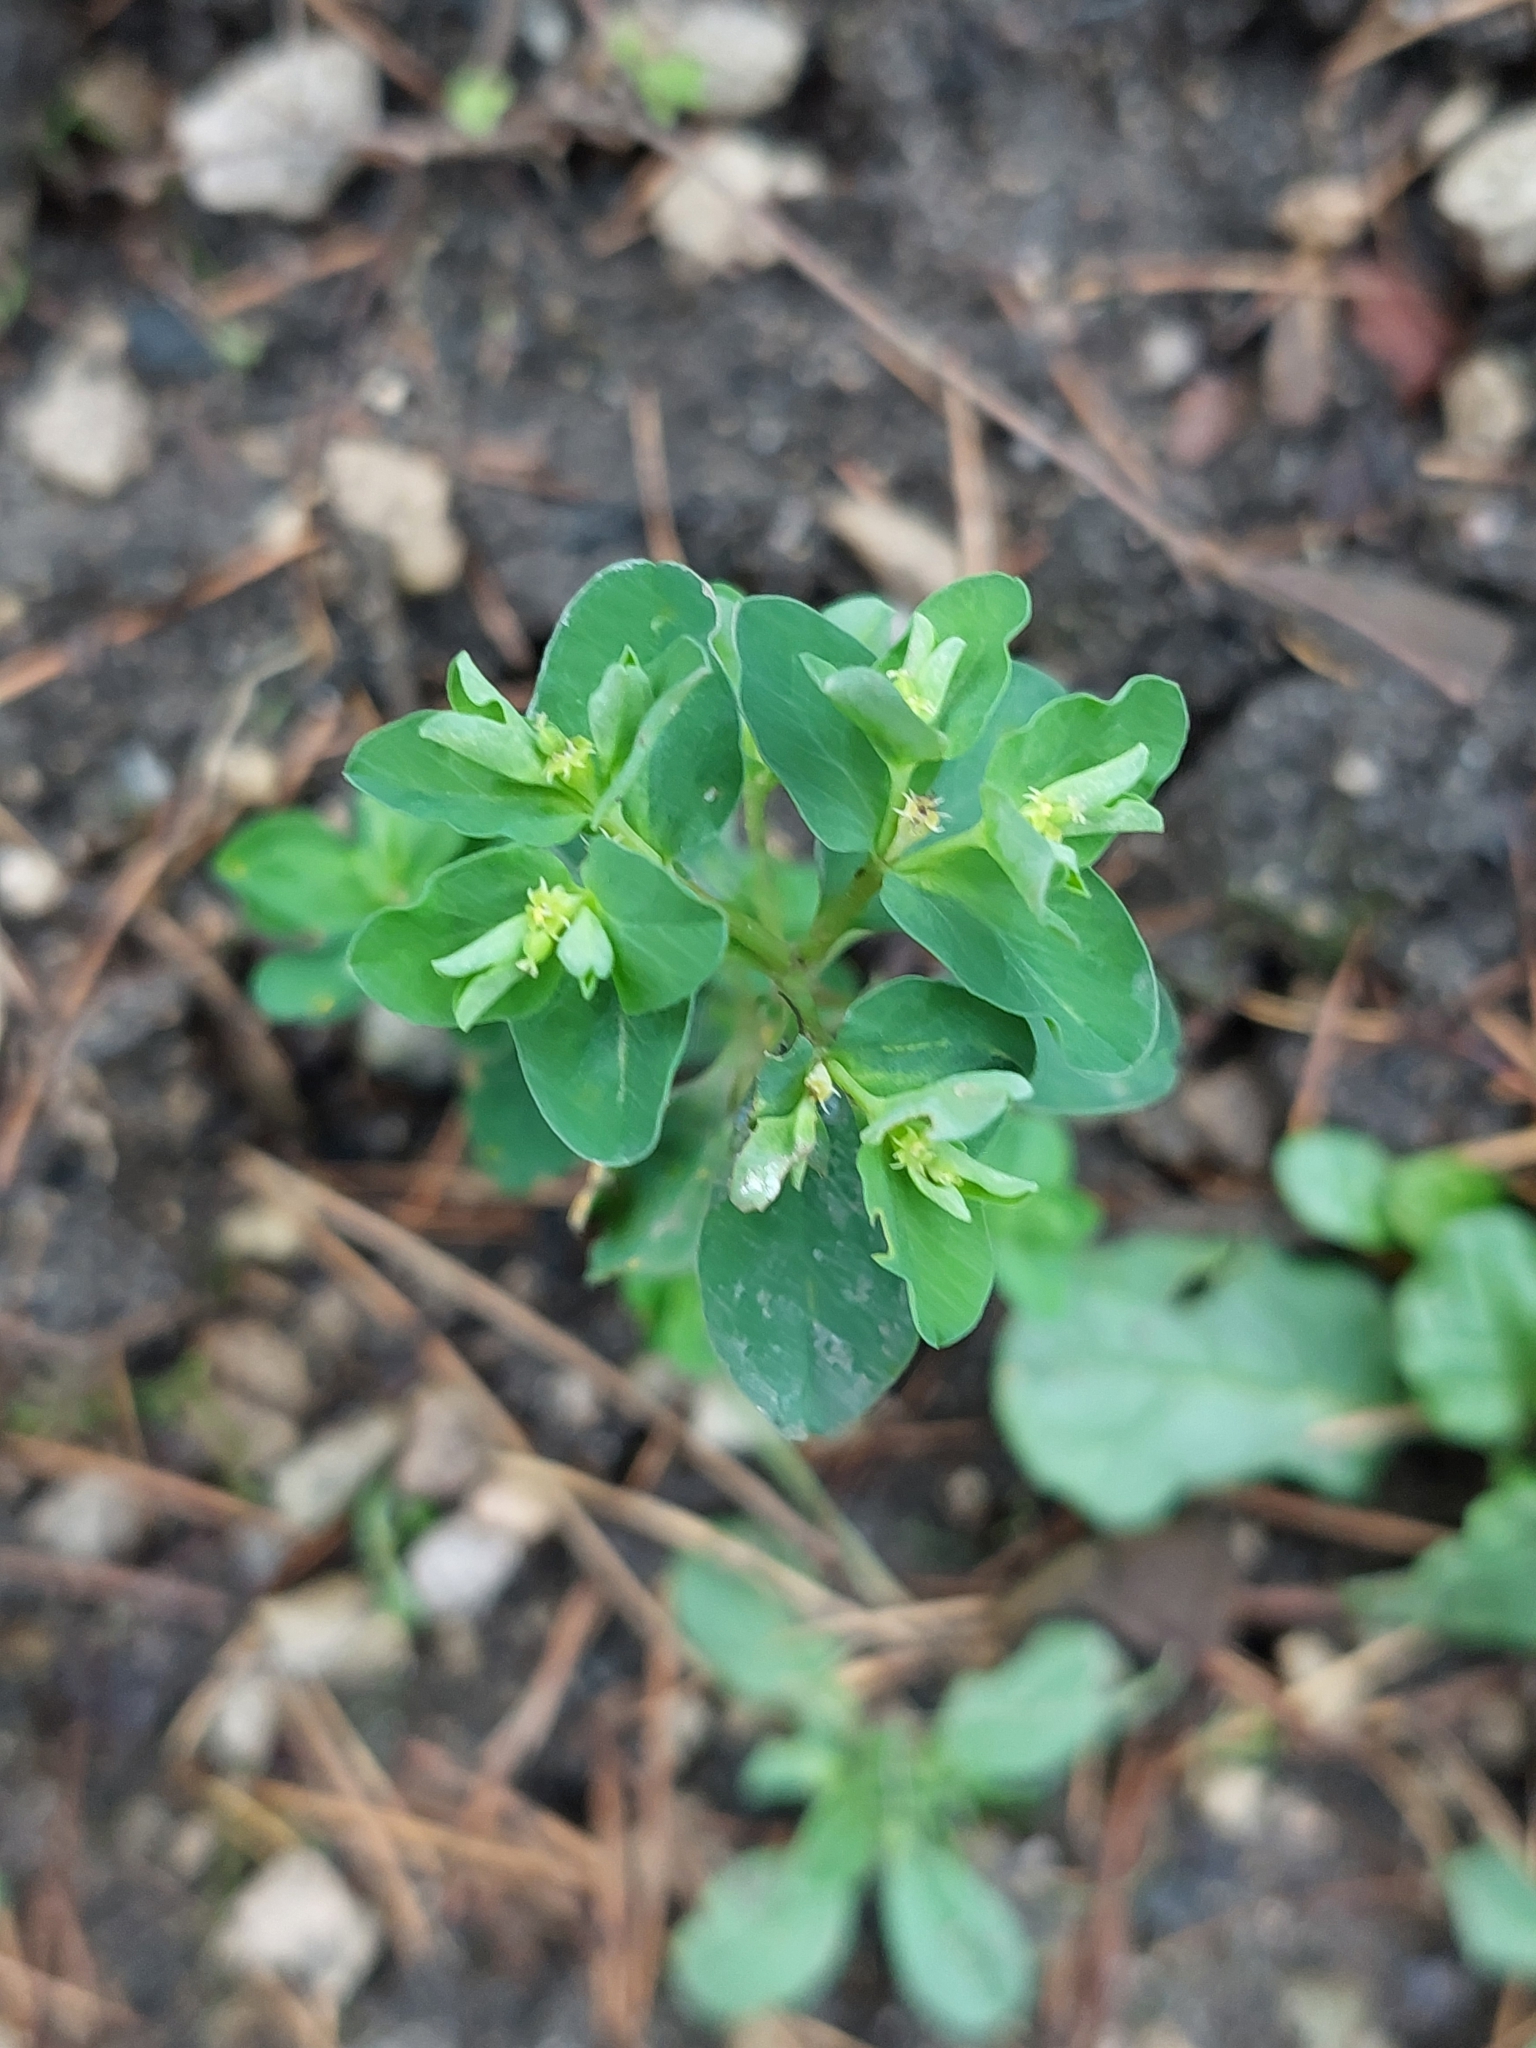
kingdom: Plantae
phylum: Tracheophyta
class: Magnoliopsida
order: Malpighiales
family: Euphorbiaceae
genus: Euphorbia
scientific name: Euphorbia peplus
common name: Petty spurge
